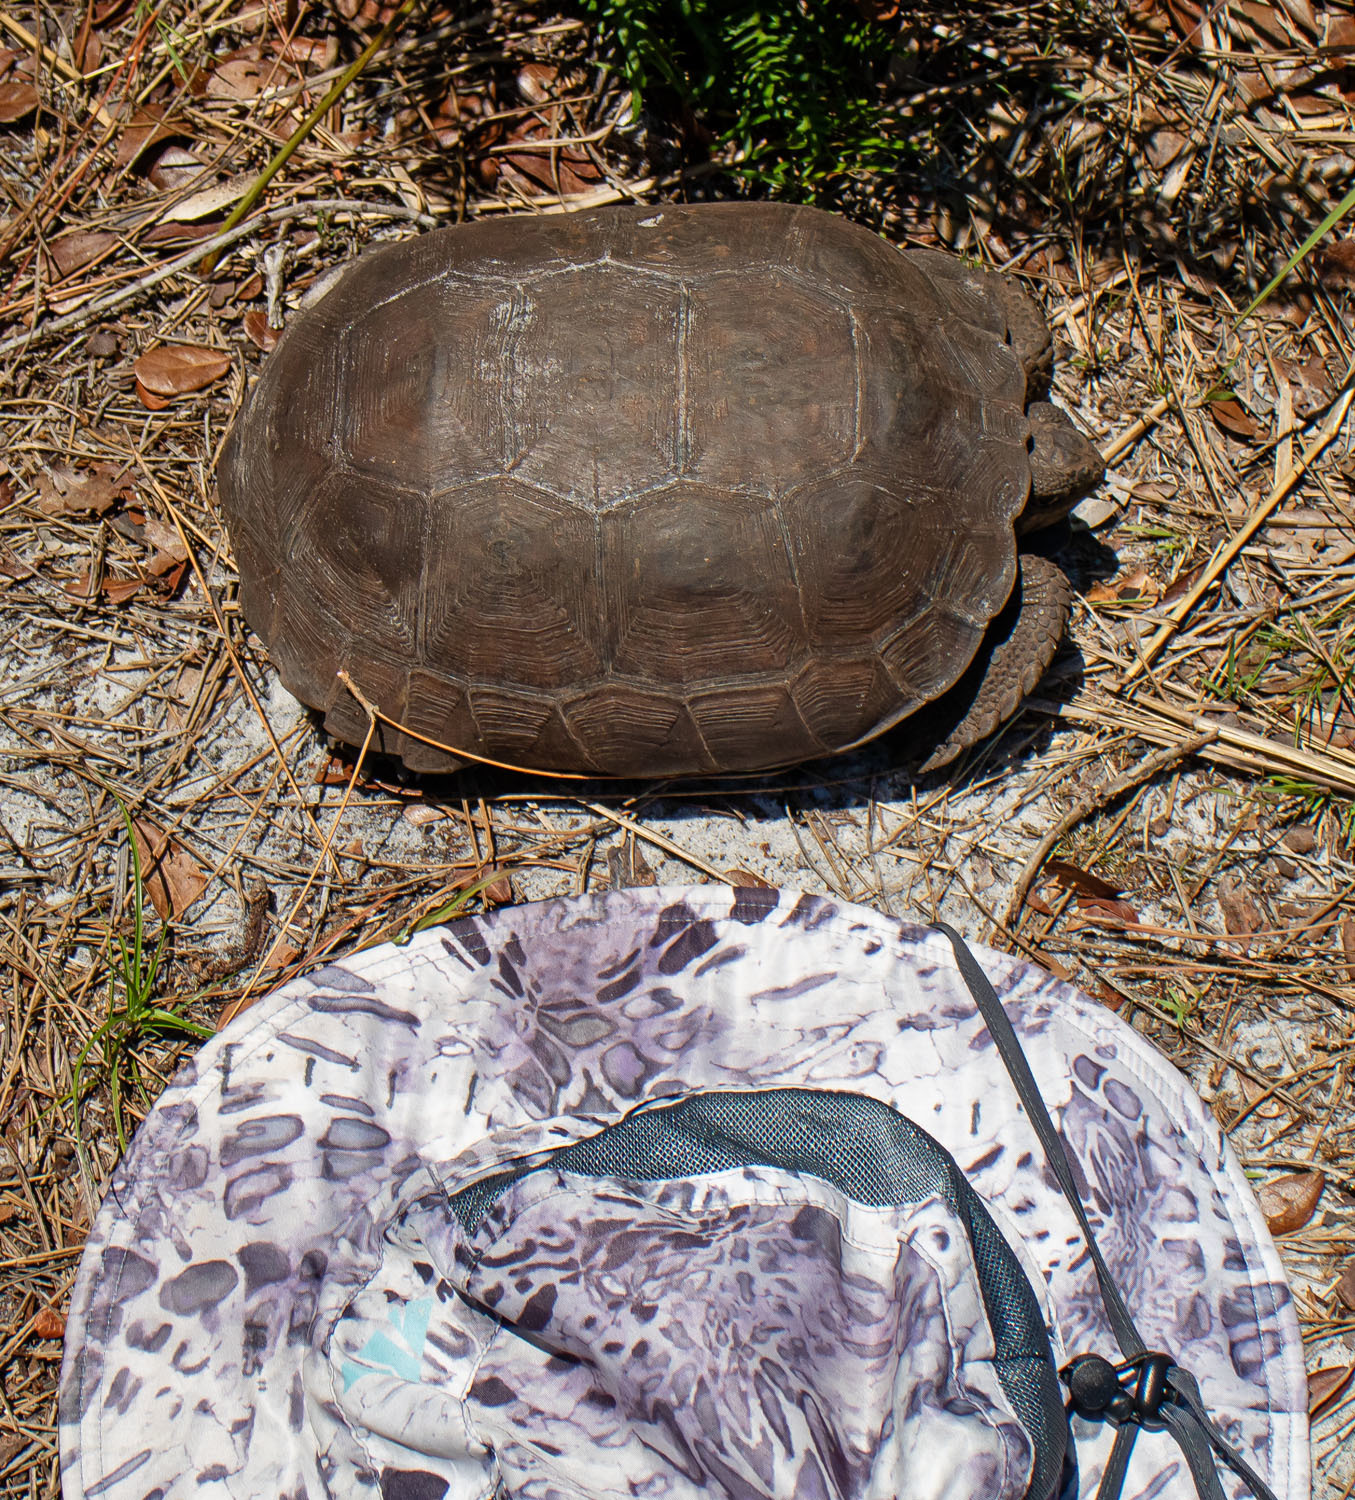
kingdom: Animalia
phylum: Chordata
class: Testudines
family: Testudinidae
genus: Gopherus
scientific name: Gopherus polyphemus
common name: Florida gopher tortoise
